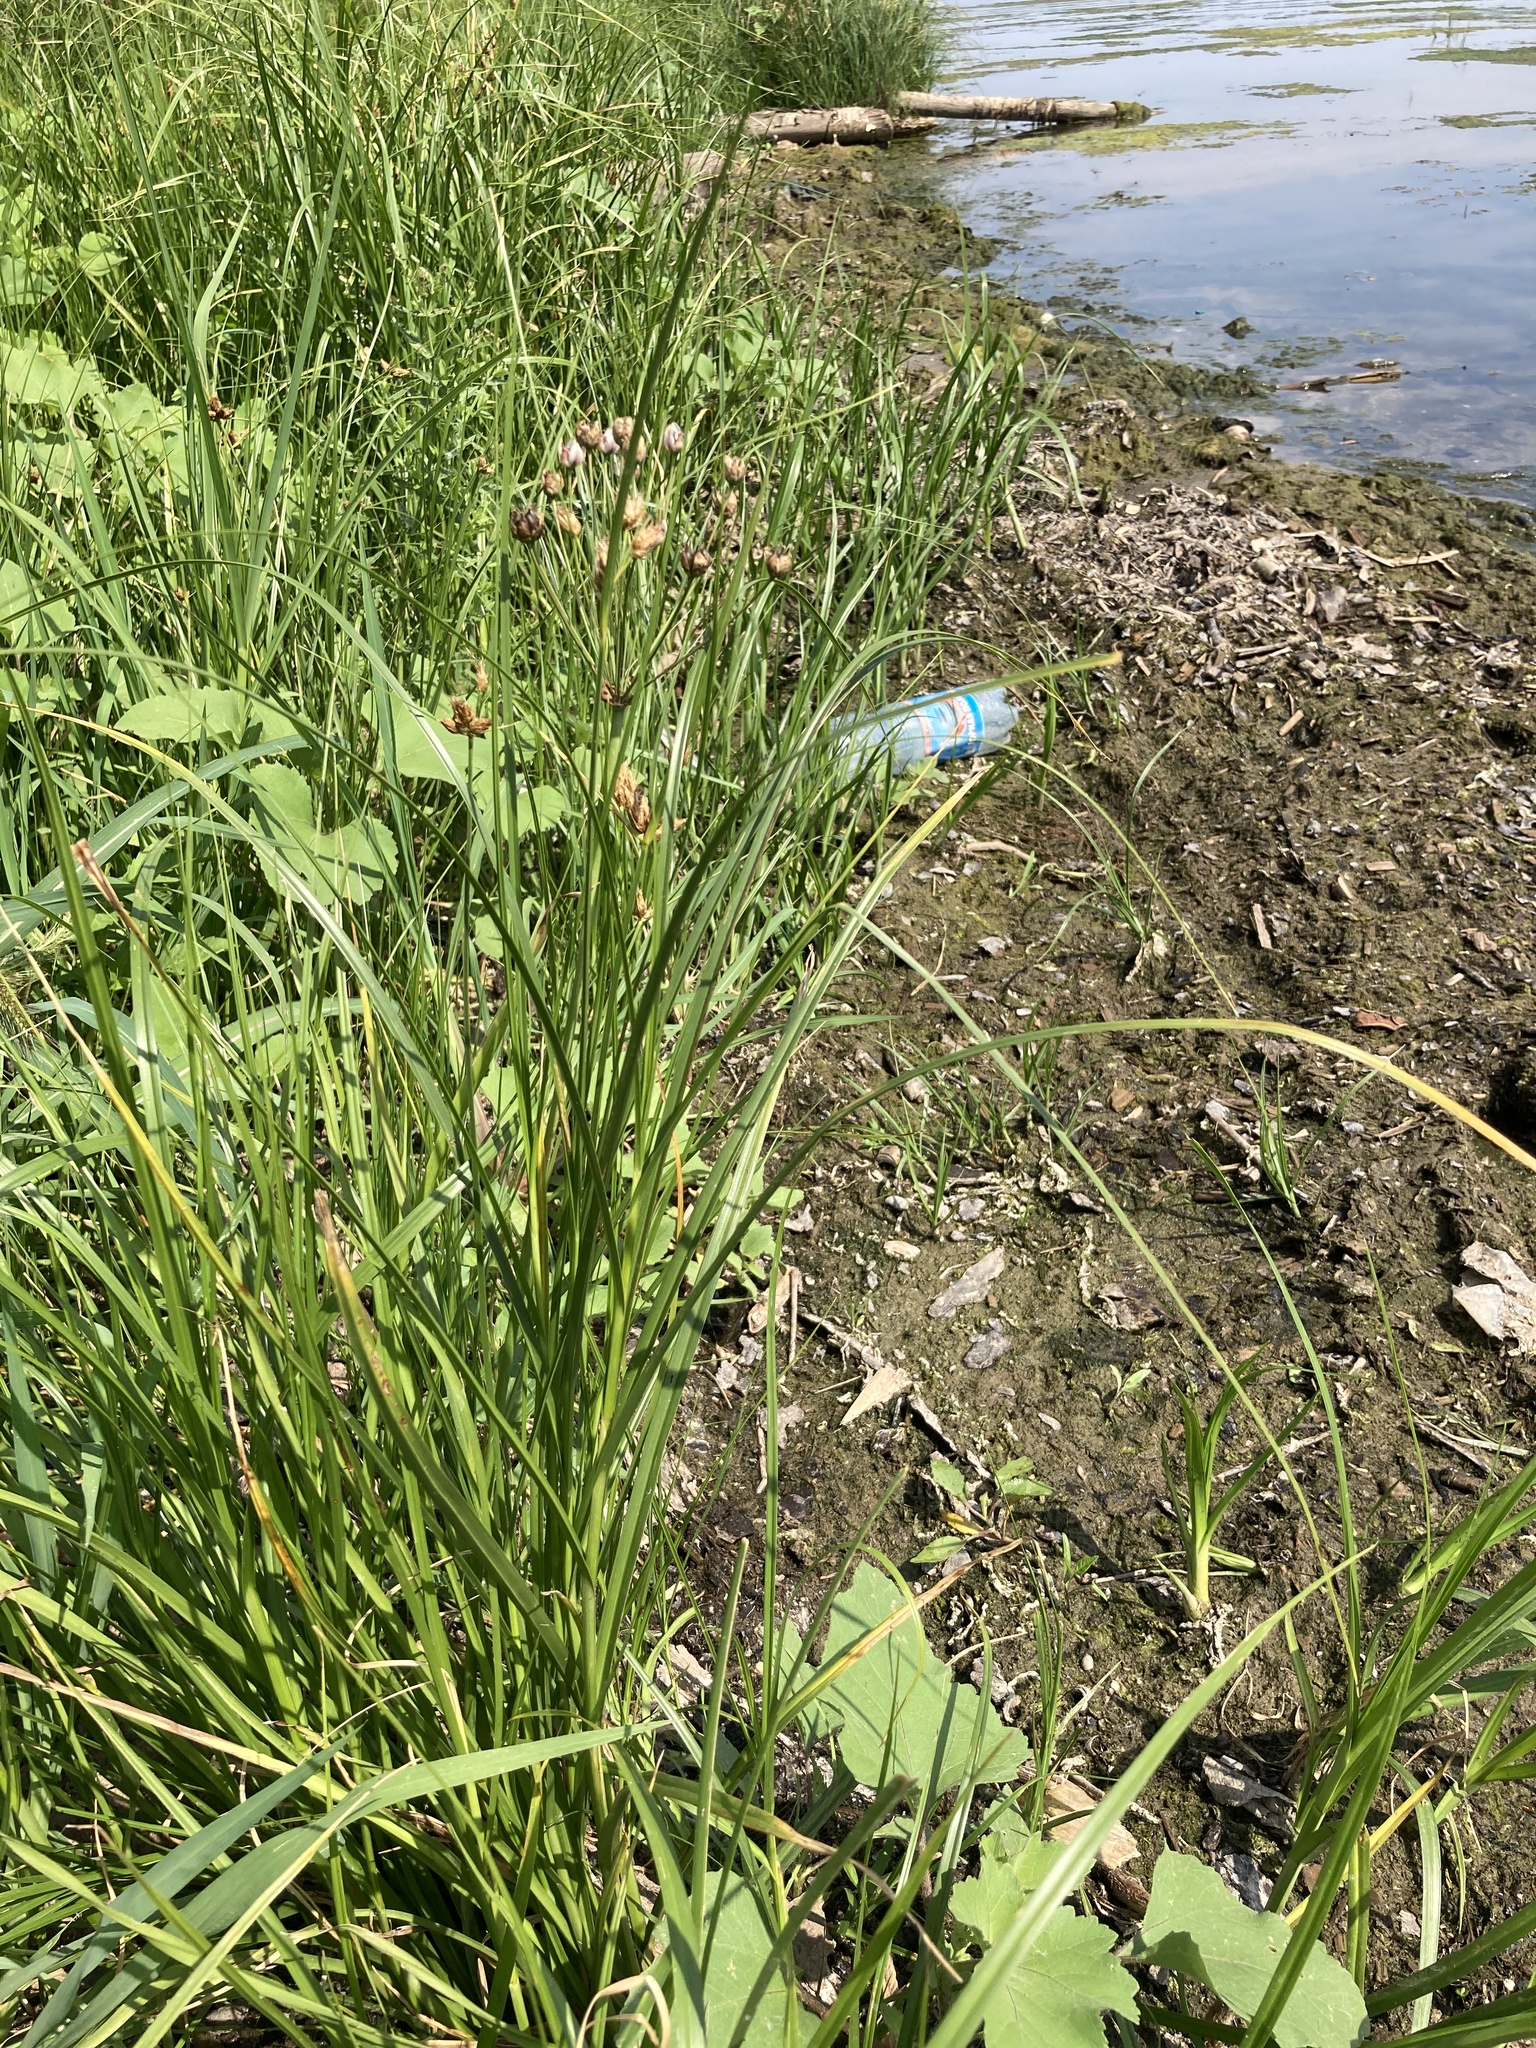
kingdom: Plantae
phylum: Tracheophyta
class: Liliopsida
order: Alismatales
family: Butomaceae
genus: Butomus
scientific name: Butomus umbellatus
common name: Flowering-rush
